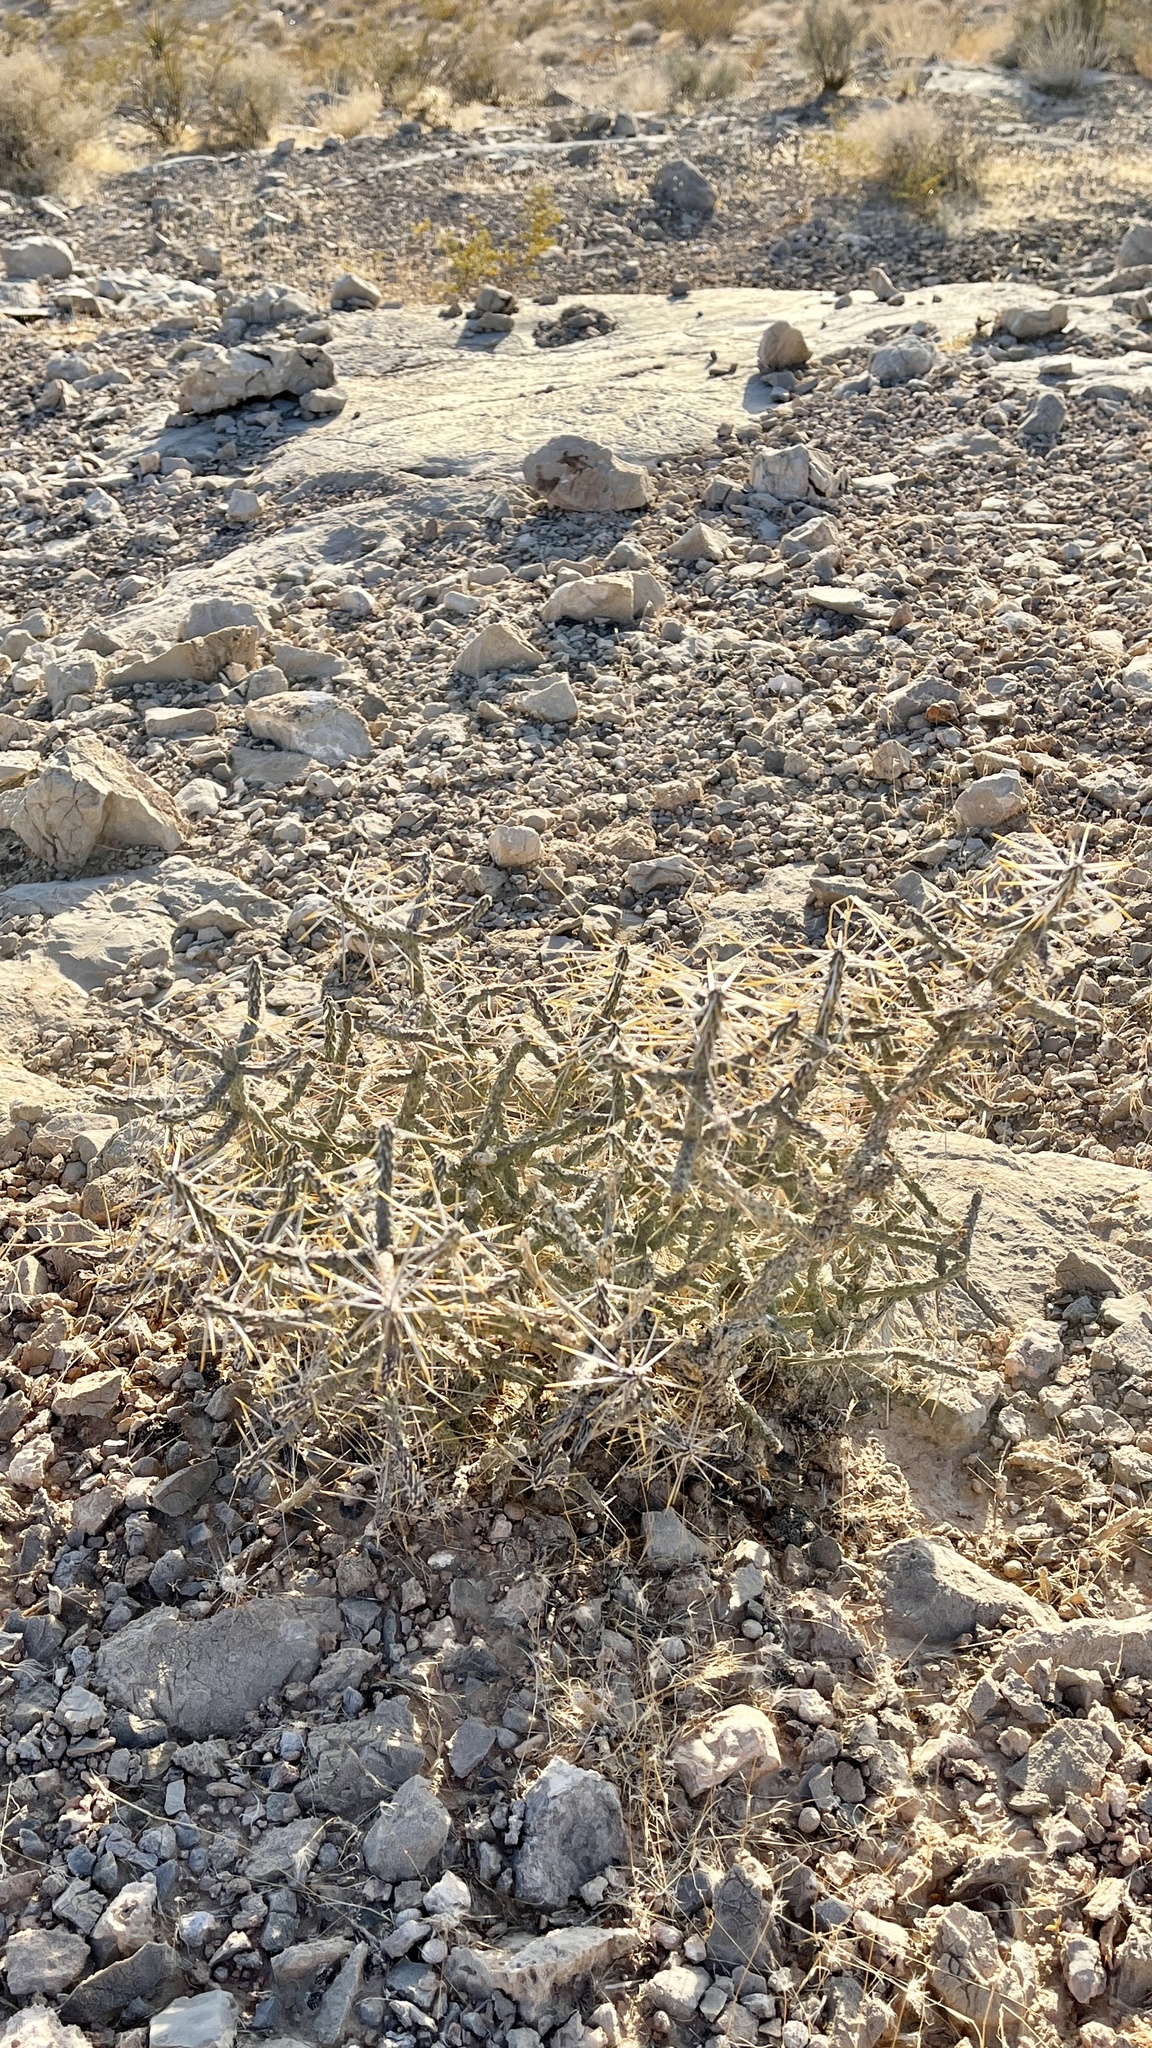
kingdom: Plantae
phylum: Tracheophyta
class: Magnoliopsida
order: Caryophyllales
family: Cactaceae
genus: Cylindropuntia
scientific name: Cylindropuntia ramosissima
